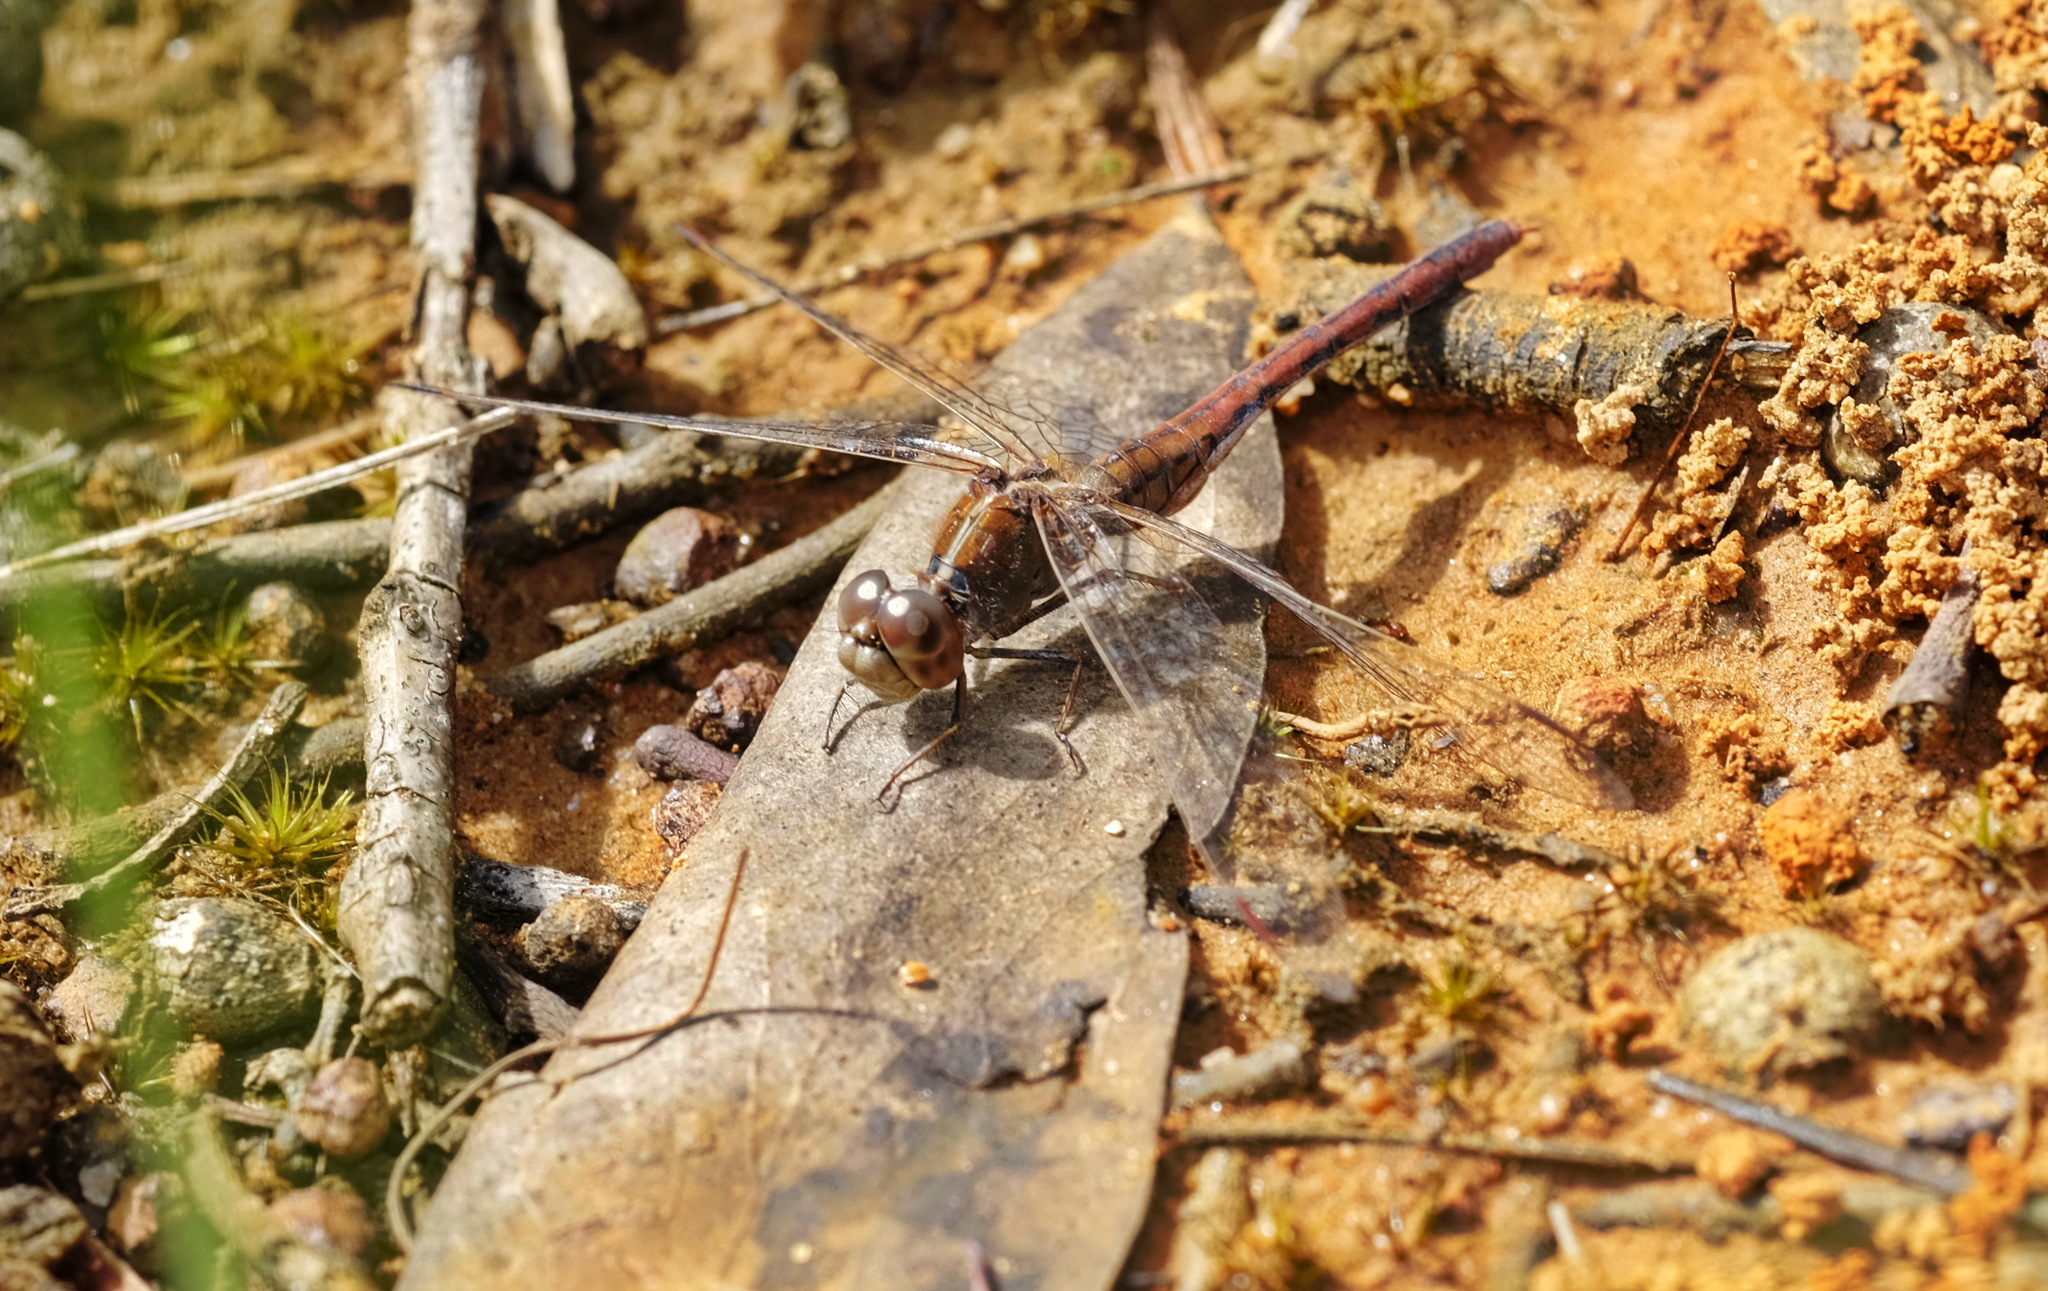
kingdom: Animalia
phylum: Arthropoda
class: Insecta
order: Odonata
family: Libellulidae
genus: Diplacodes
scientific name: Diplacodes bipunctata
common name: Red percher dragonfly
